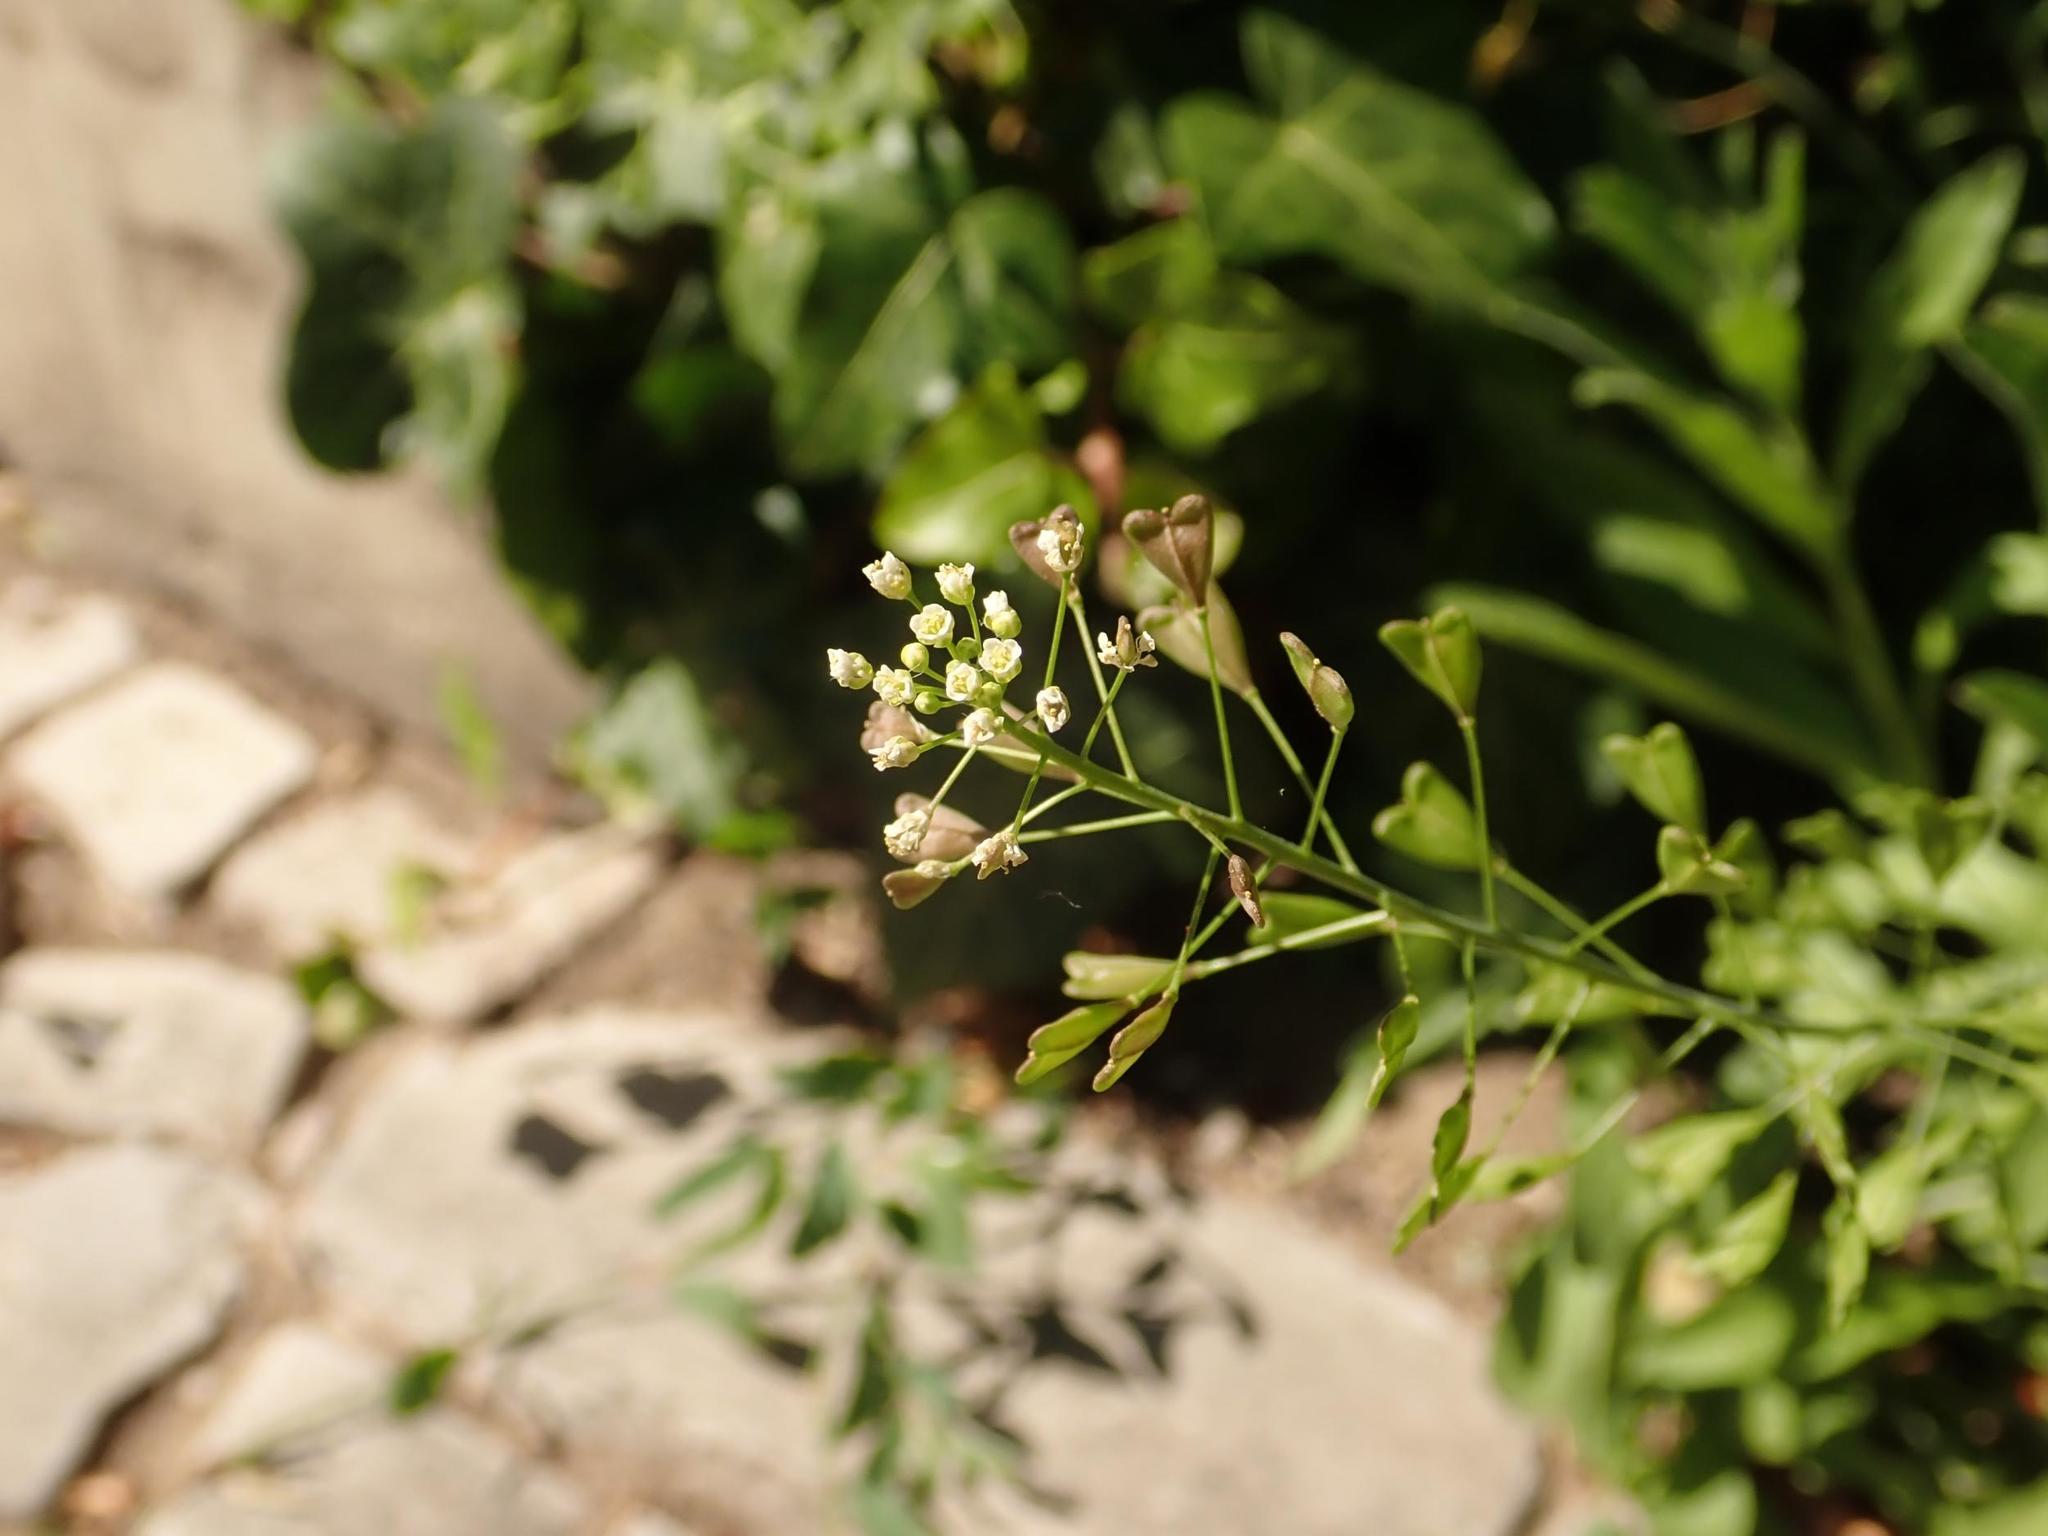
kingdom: Plantae
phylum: Tracheophyta
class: Magnoliopsida
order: Brassicales
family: Brassicaceae
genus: Capsella
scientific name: Capsella bursa-pastoris
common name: Shepherd's purse
